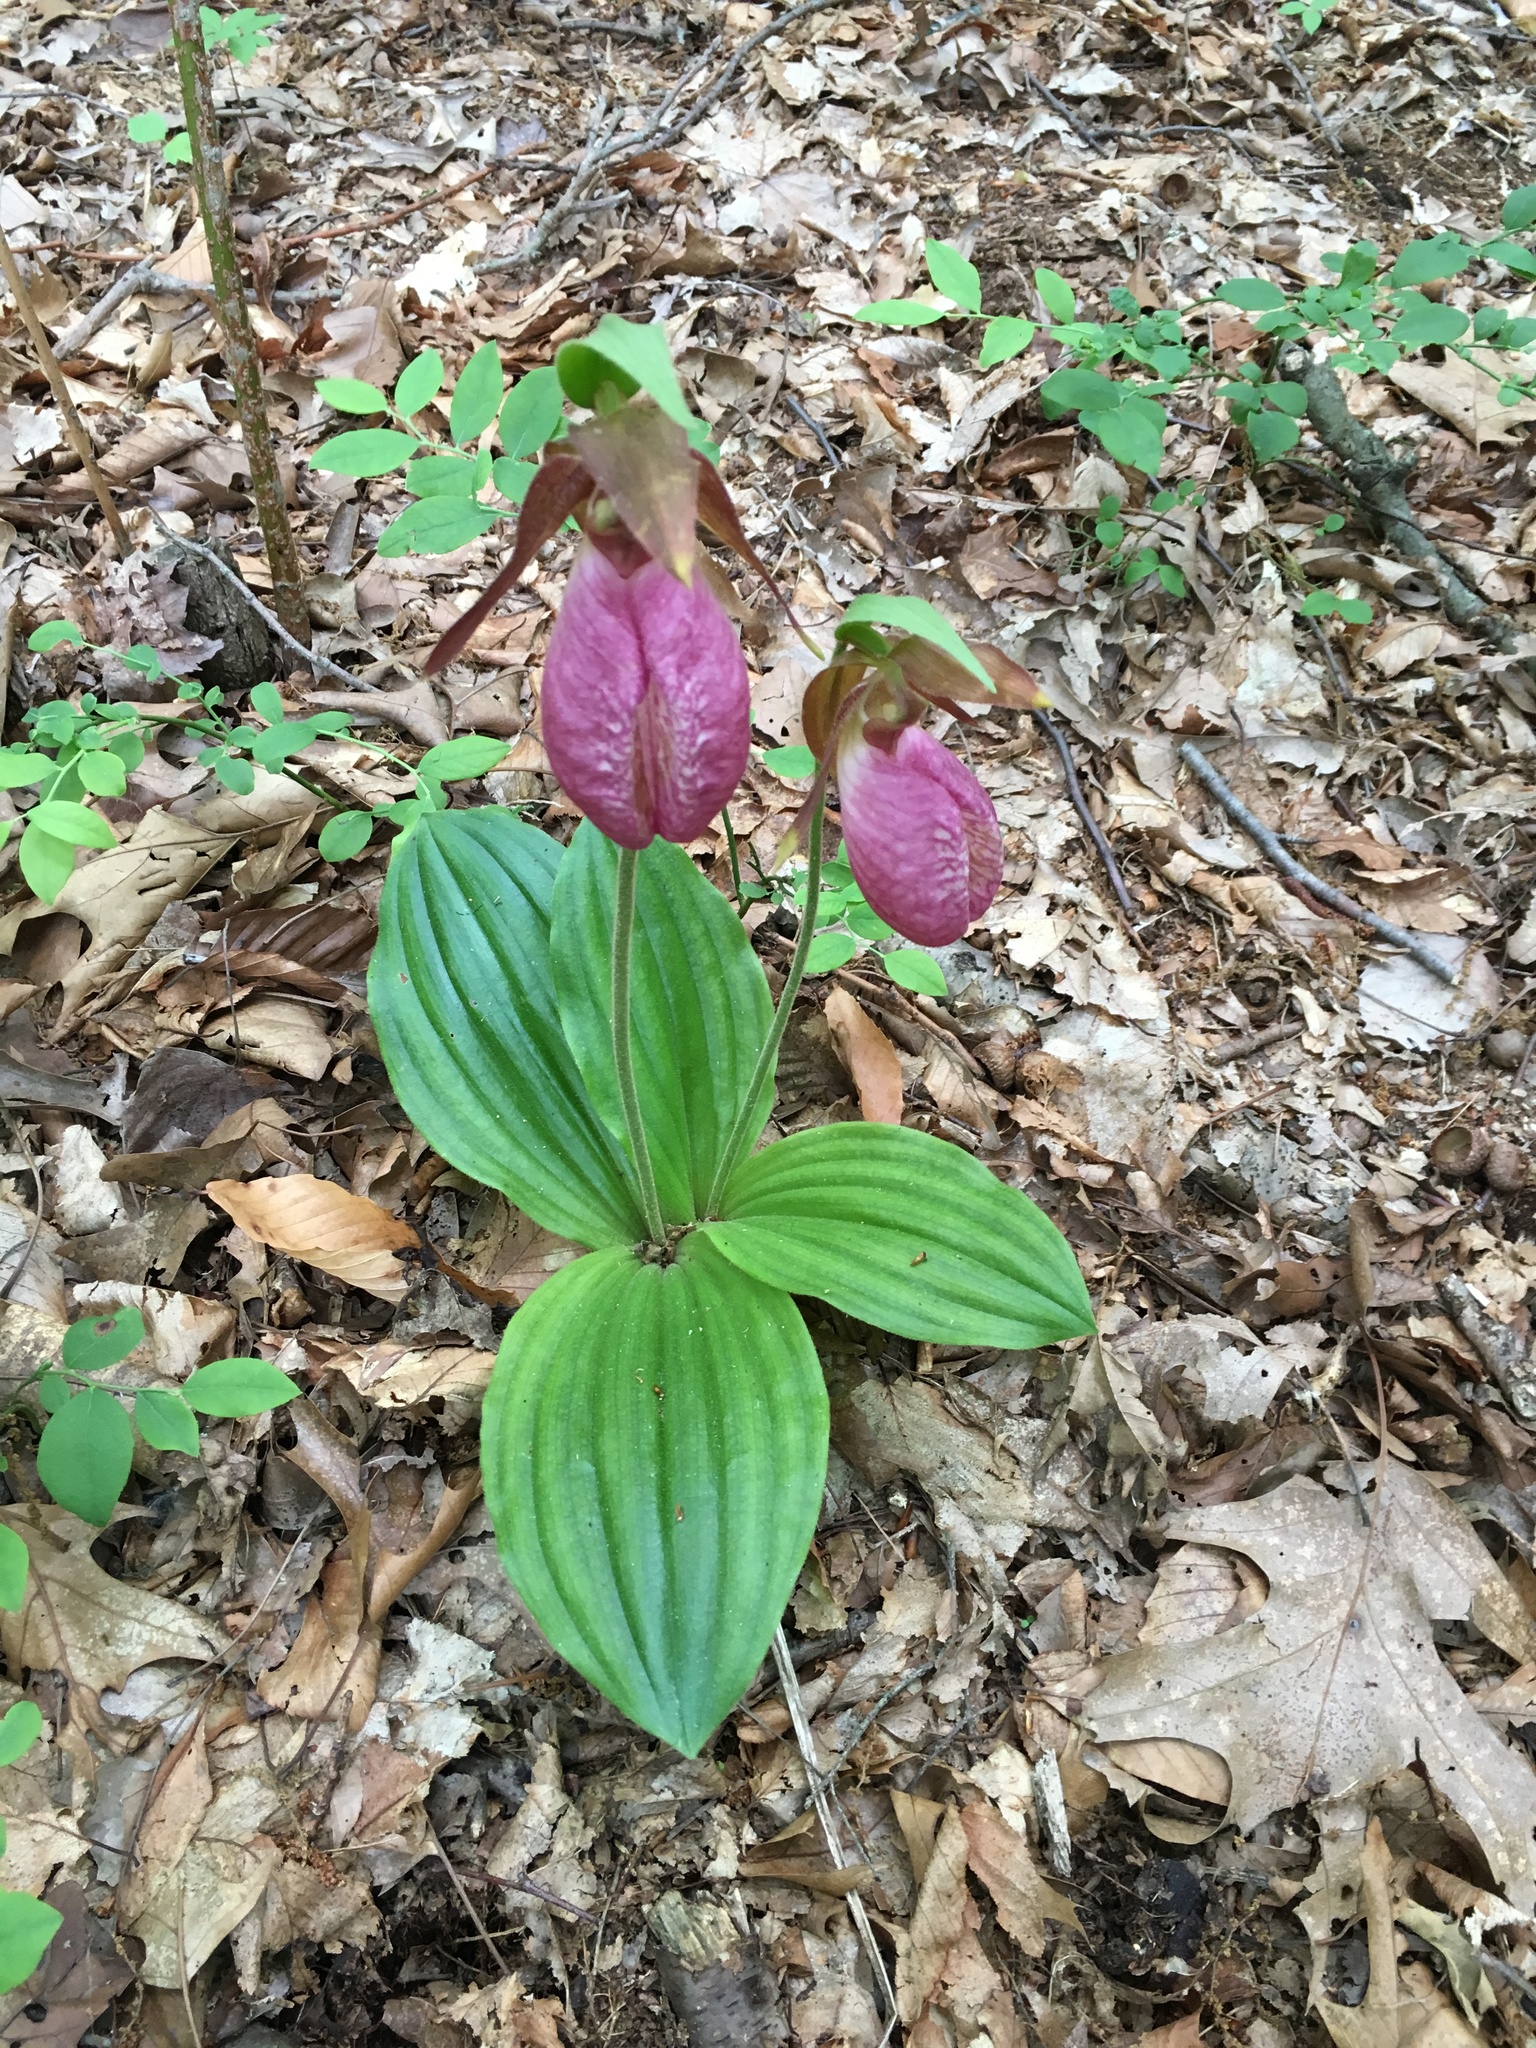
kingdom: Plantae
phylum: Tracheophyta
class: Liliopsida
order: Asparagales
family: Orchidaceae
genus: Cypripedium
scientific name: Cypripedium acaule
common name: Pink lady's-slipper
